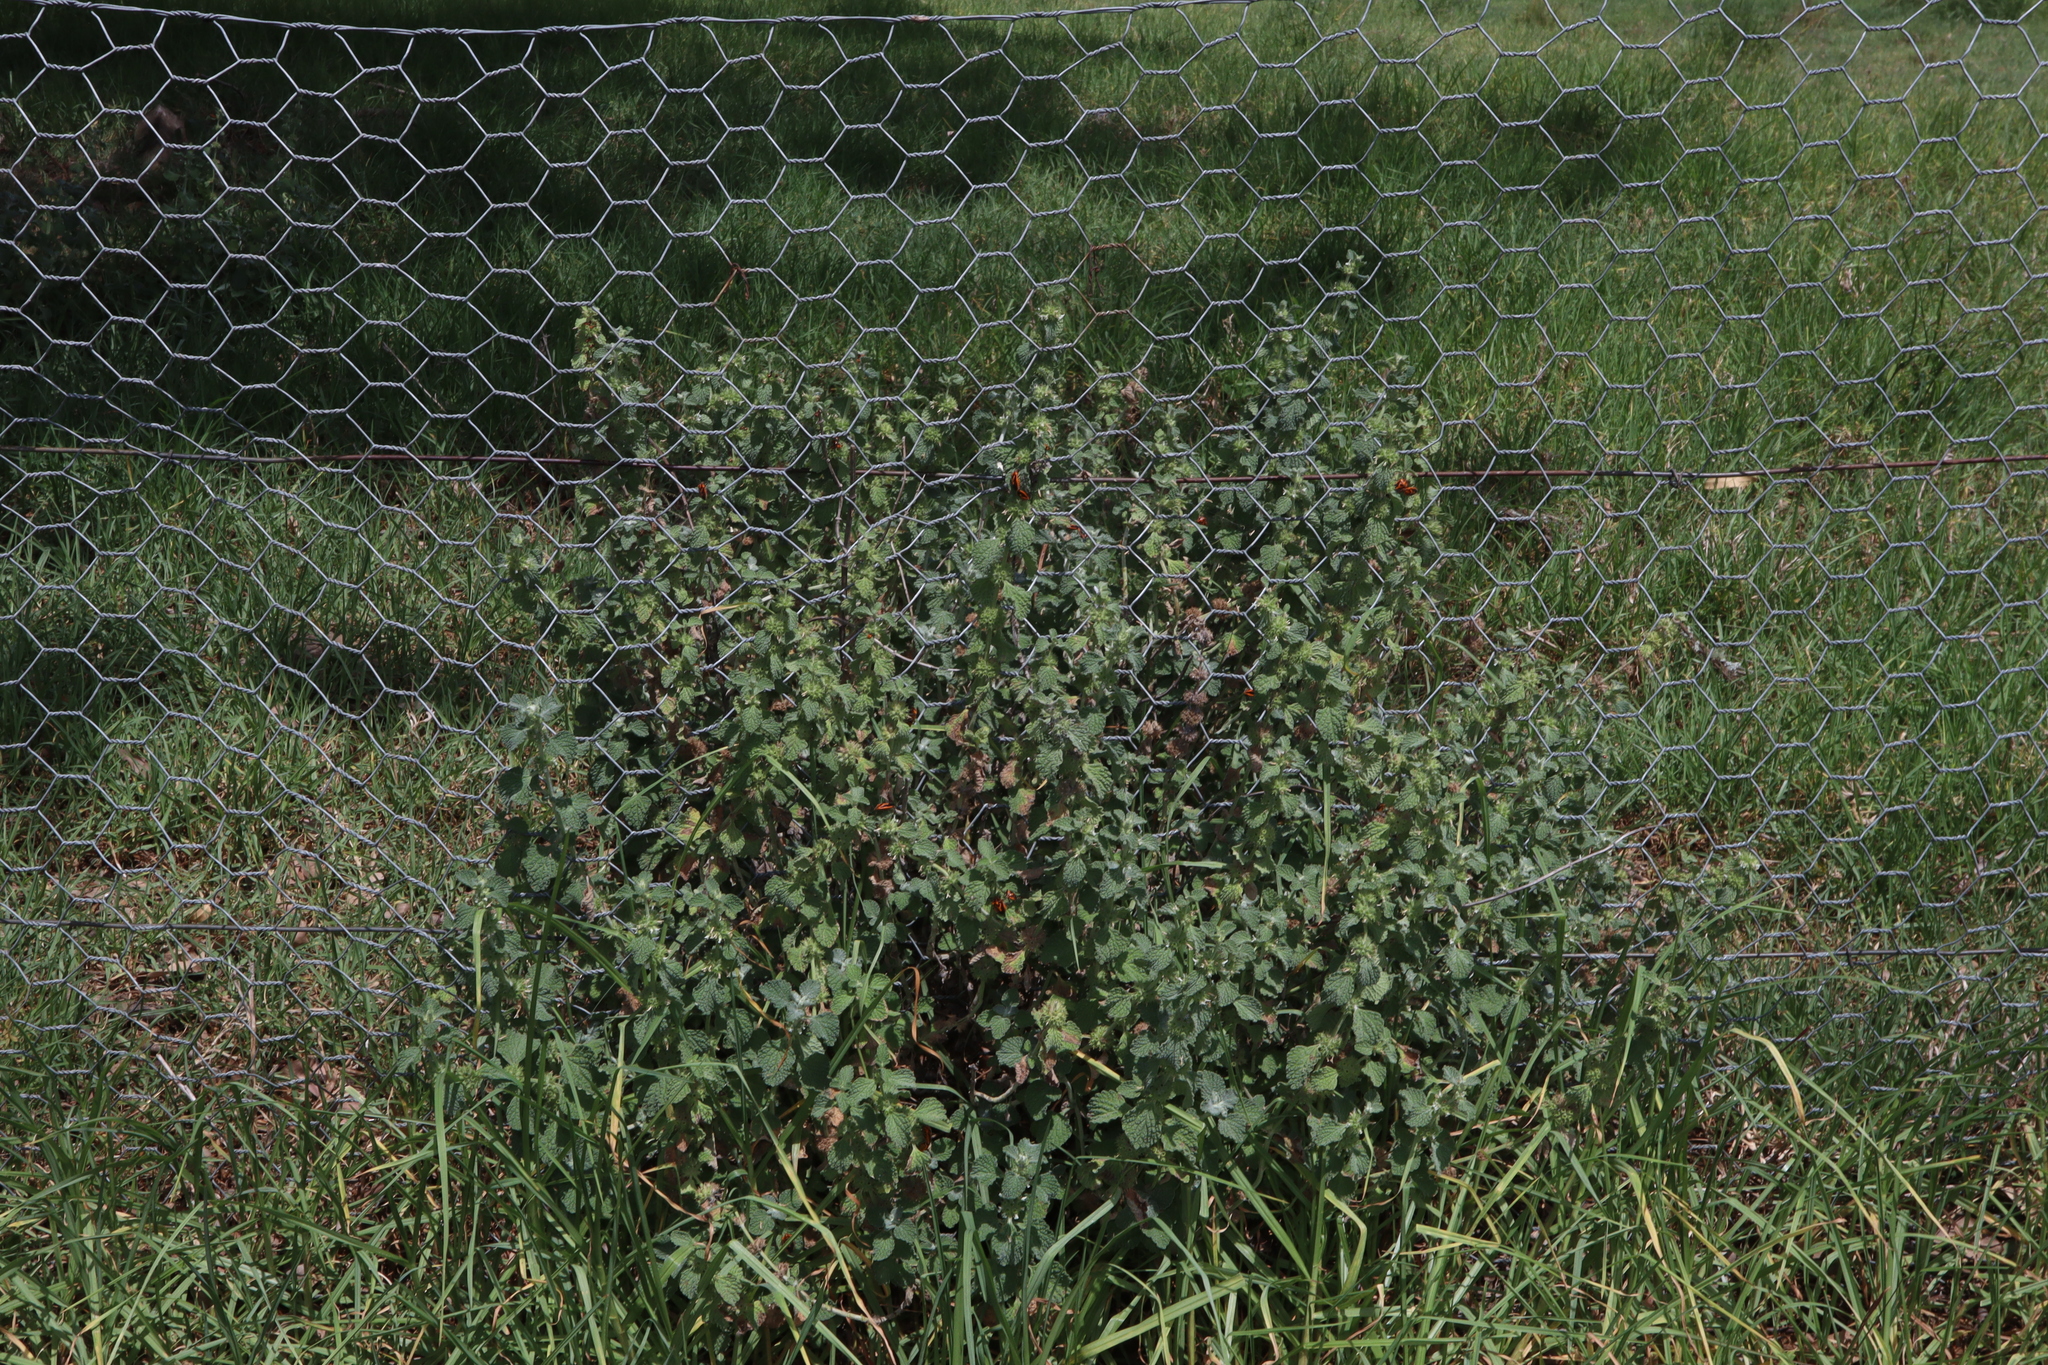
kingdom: Plantae
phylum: Tracheophyta
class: Magnoliopsida
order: Lamiales
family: Lamiaceae
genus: Marrubium
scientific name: Marrubium vulgare
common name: Horehound
